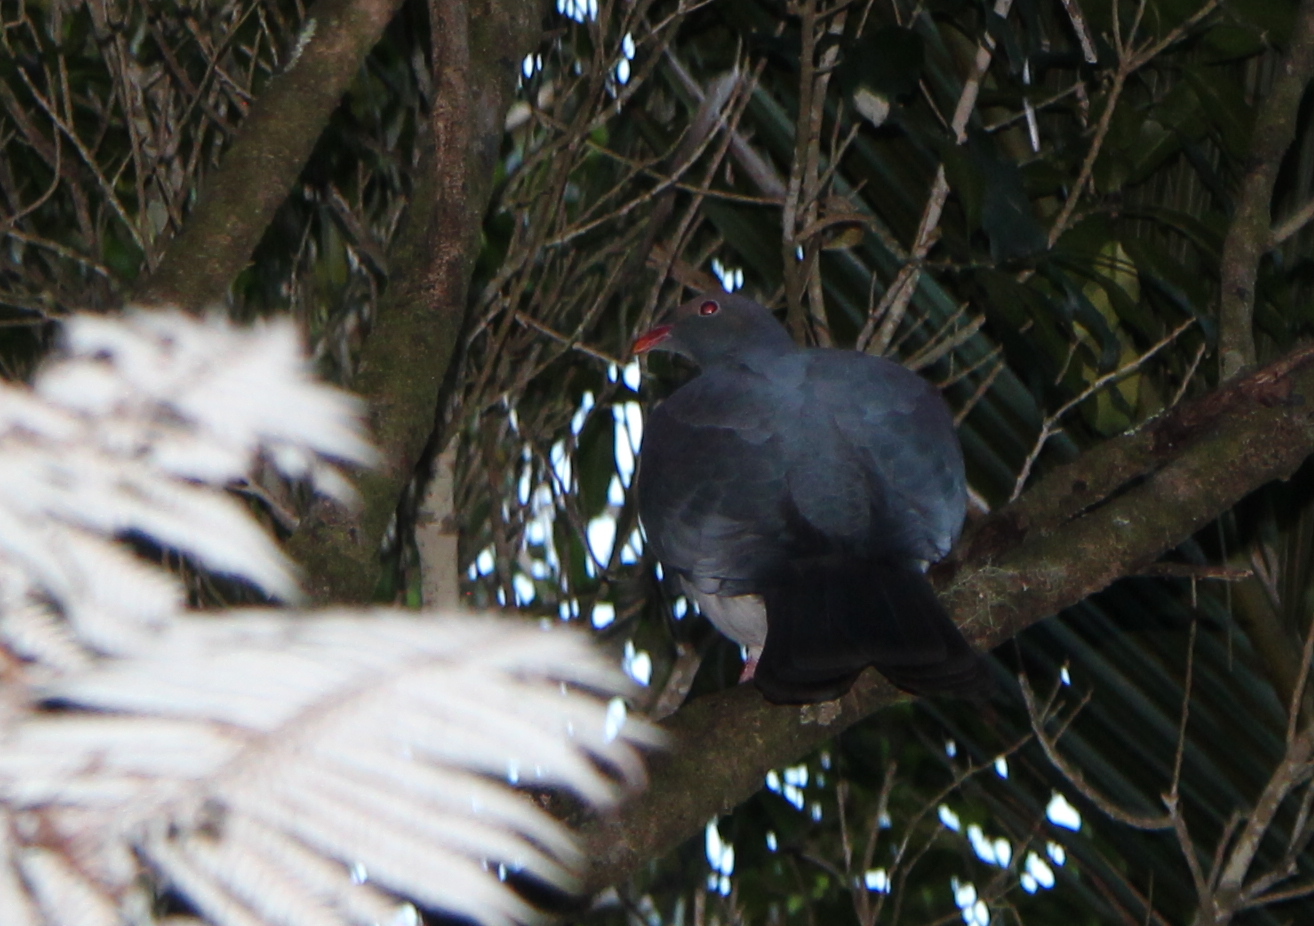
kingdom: Animalia
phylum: Chordata
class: Aves
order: Columbiformes
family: Columbidae
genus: Hemiphaga
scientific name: Hemiphaga novaeseelandiae
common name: New zealand pigeon
